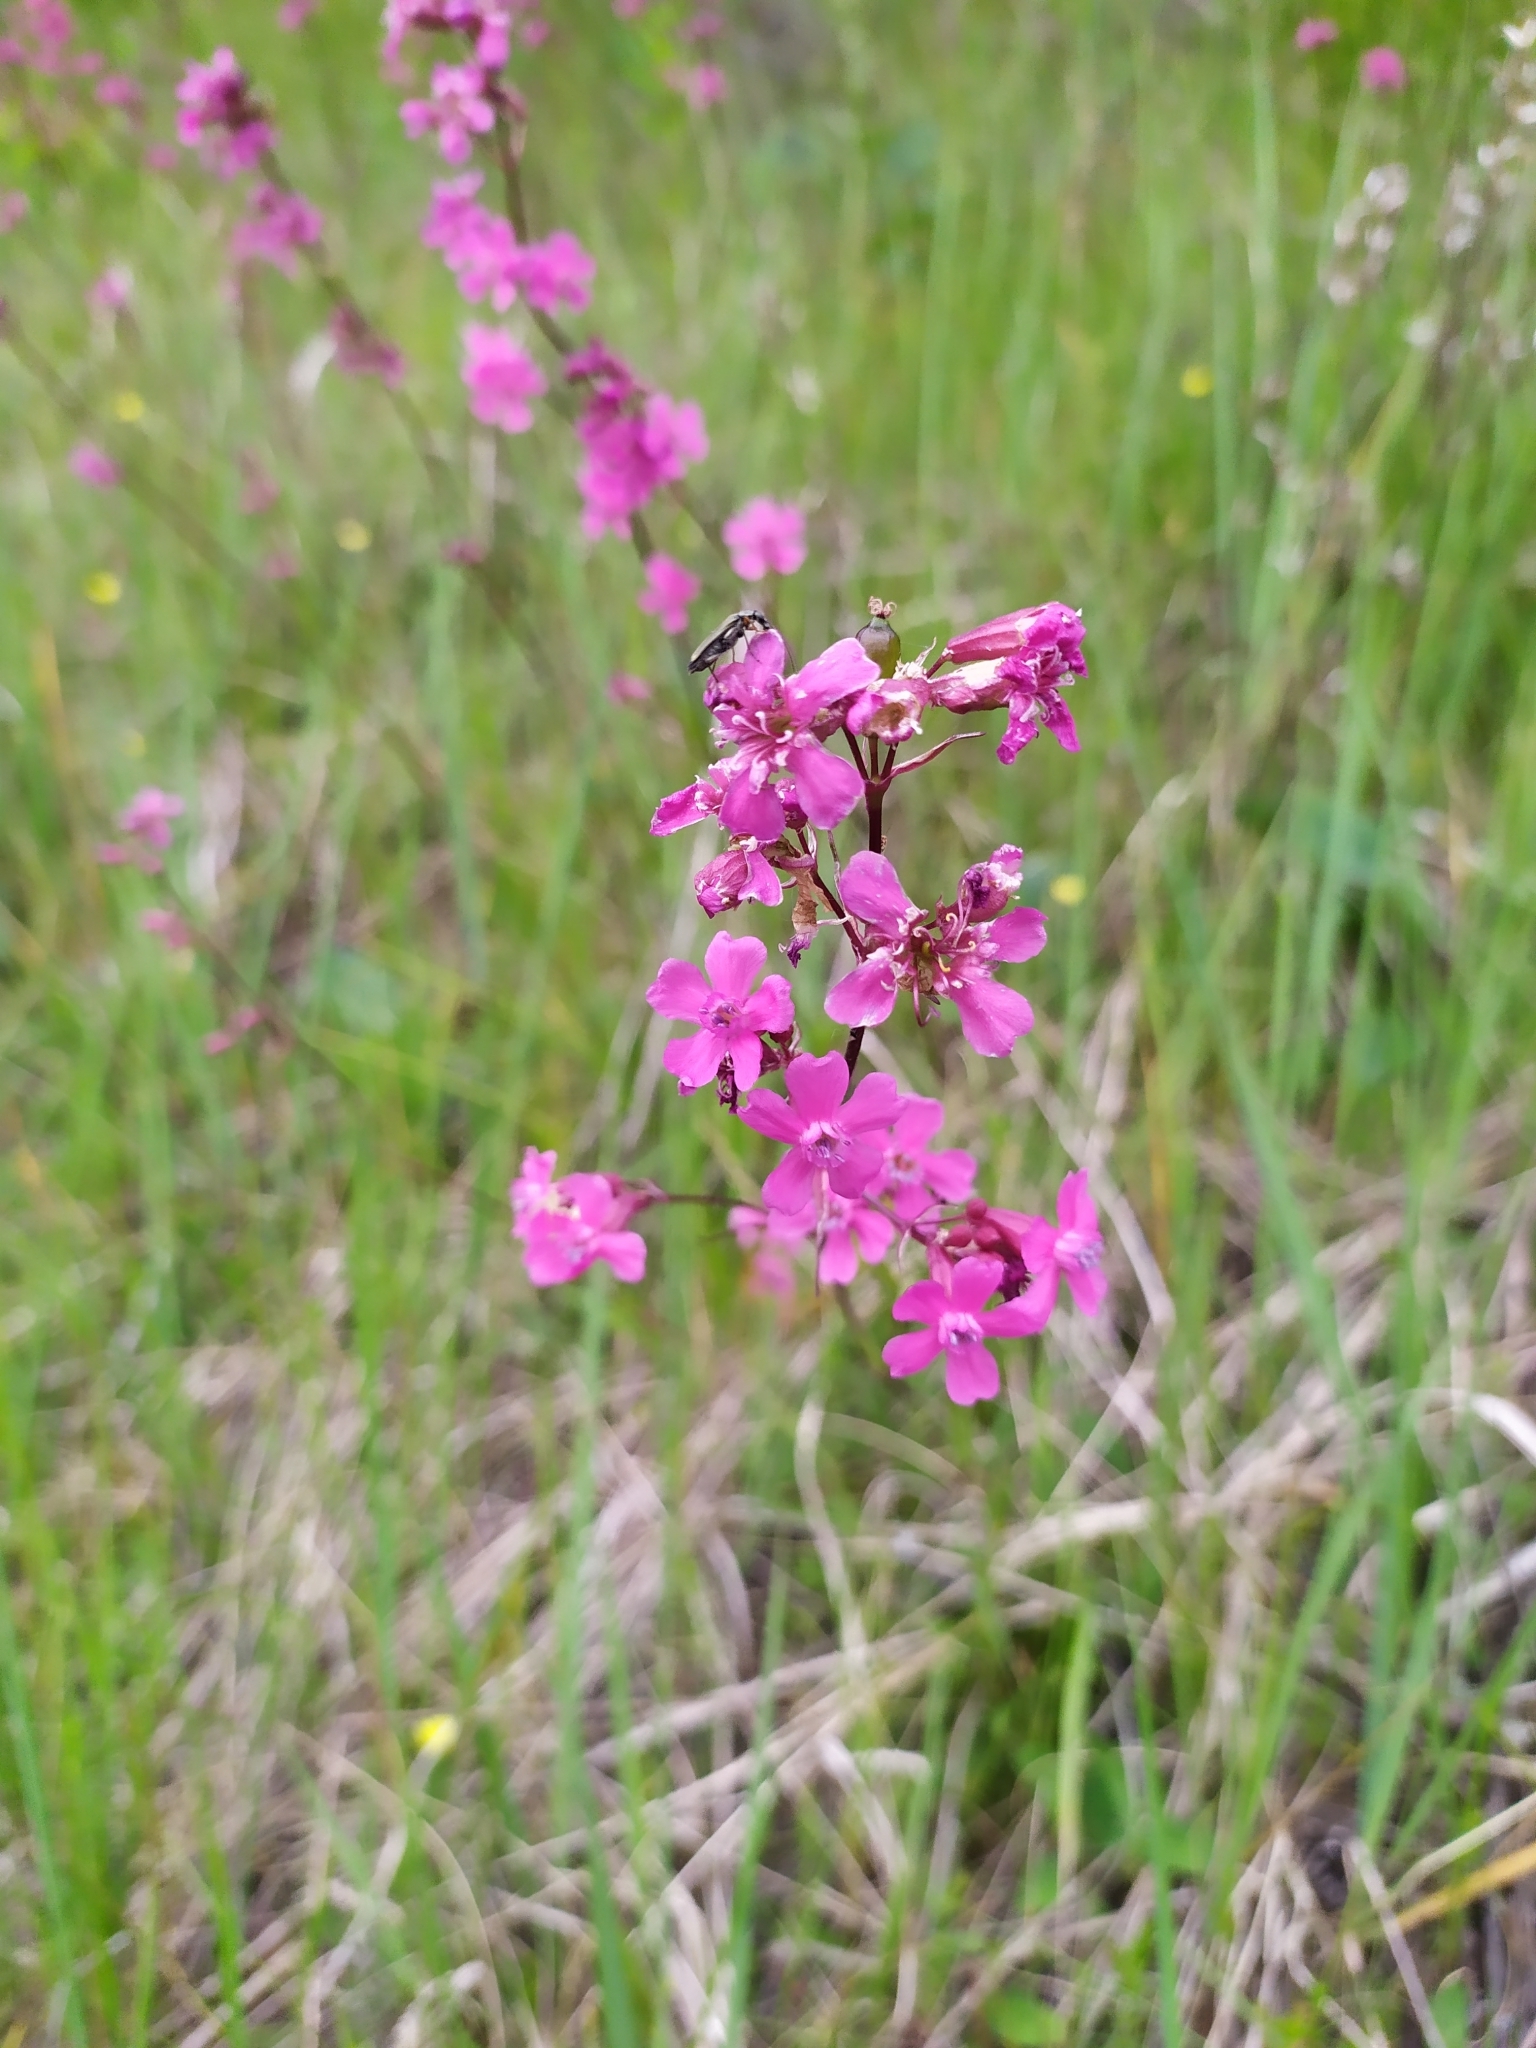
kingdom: Plantae
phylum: Tracheophyta
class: Magnoliopsida
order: Caryophyllales
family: Caryophyllaceae
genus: Viscaria
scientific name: Viscaria vulgaris
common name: Clammy campion
